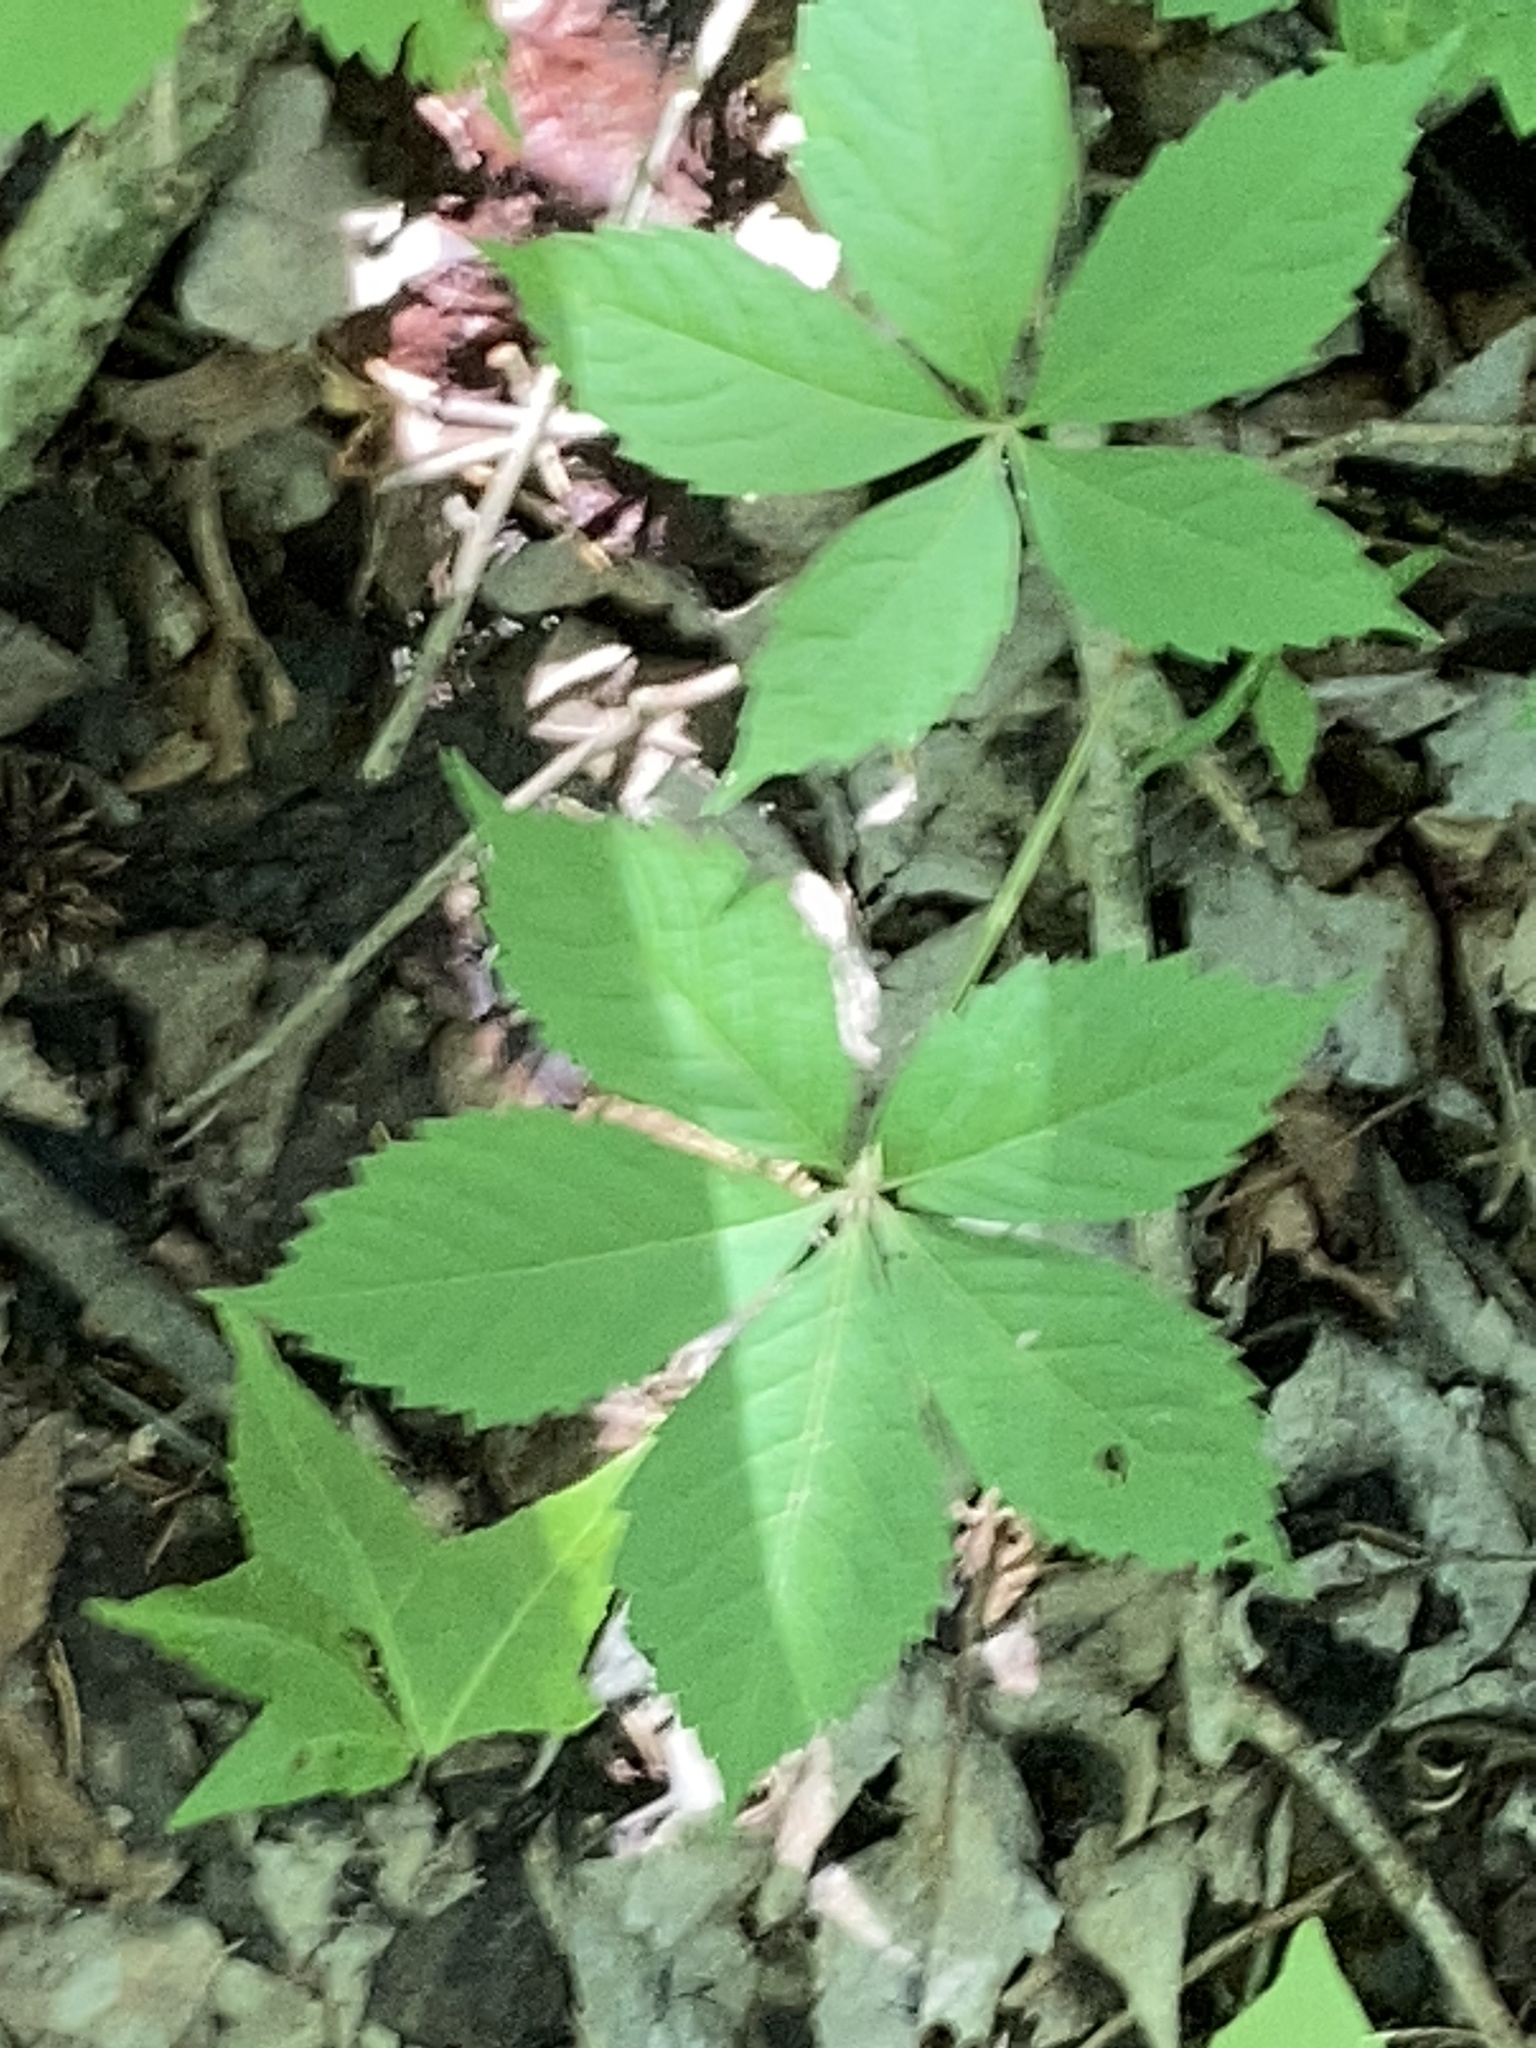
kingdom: Plantae
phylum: Tracheophyta
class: Magnoliopsida
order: Vitales
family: Vitaceae
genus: Parthenocissus
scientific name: Parthenocissus quinquefolia
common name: Virginia-creeper
